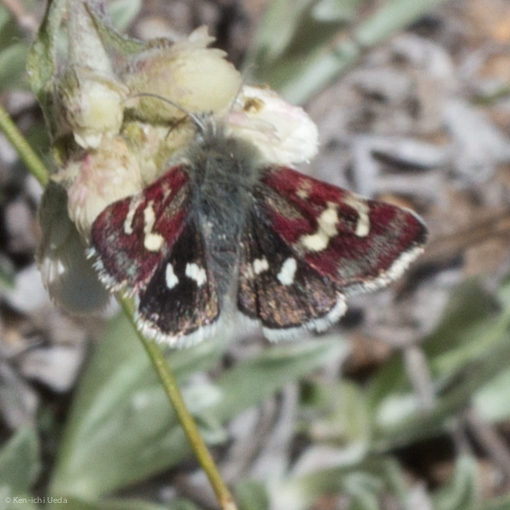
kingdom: Animalia
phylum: Arthropoda
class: Insecta
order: Lepidoptera
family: Noctuidae
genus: Eutricopis
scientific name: Eutricopis nexilis
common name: White-spotted midget moth
